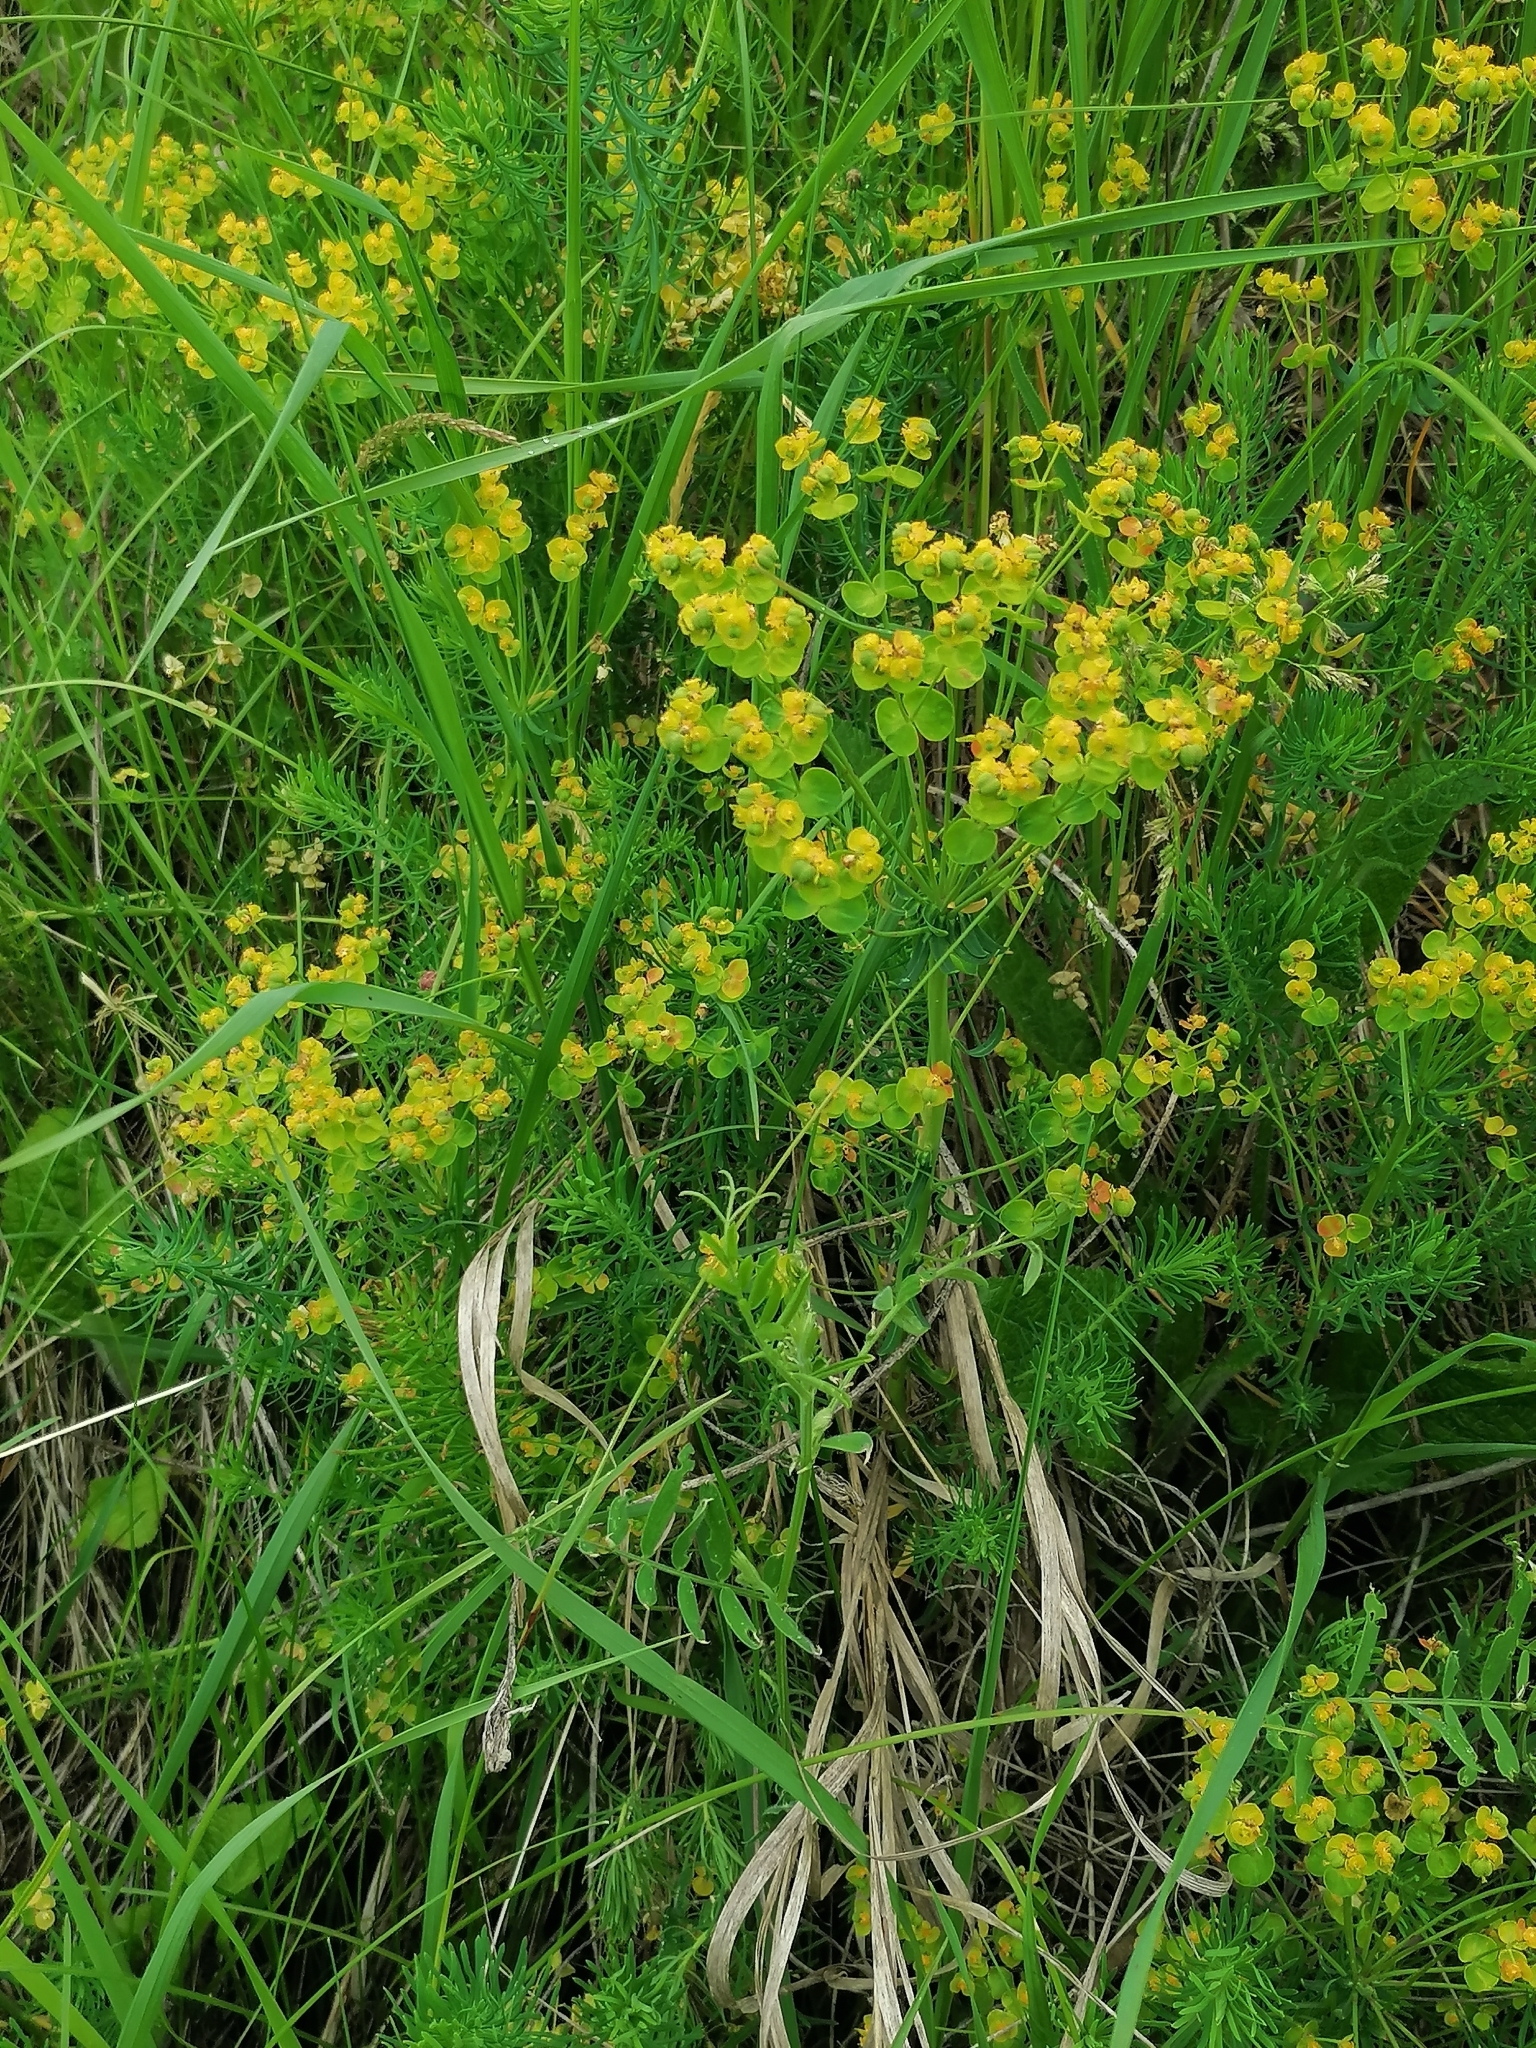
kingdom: Plantae
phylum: Tracheophyta
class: Magnoliopsida
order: Malpighiales
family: Euphorbiaceae
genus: Euphorbia
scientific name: Euphorbia cyparissias
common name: Cypress spurge
